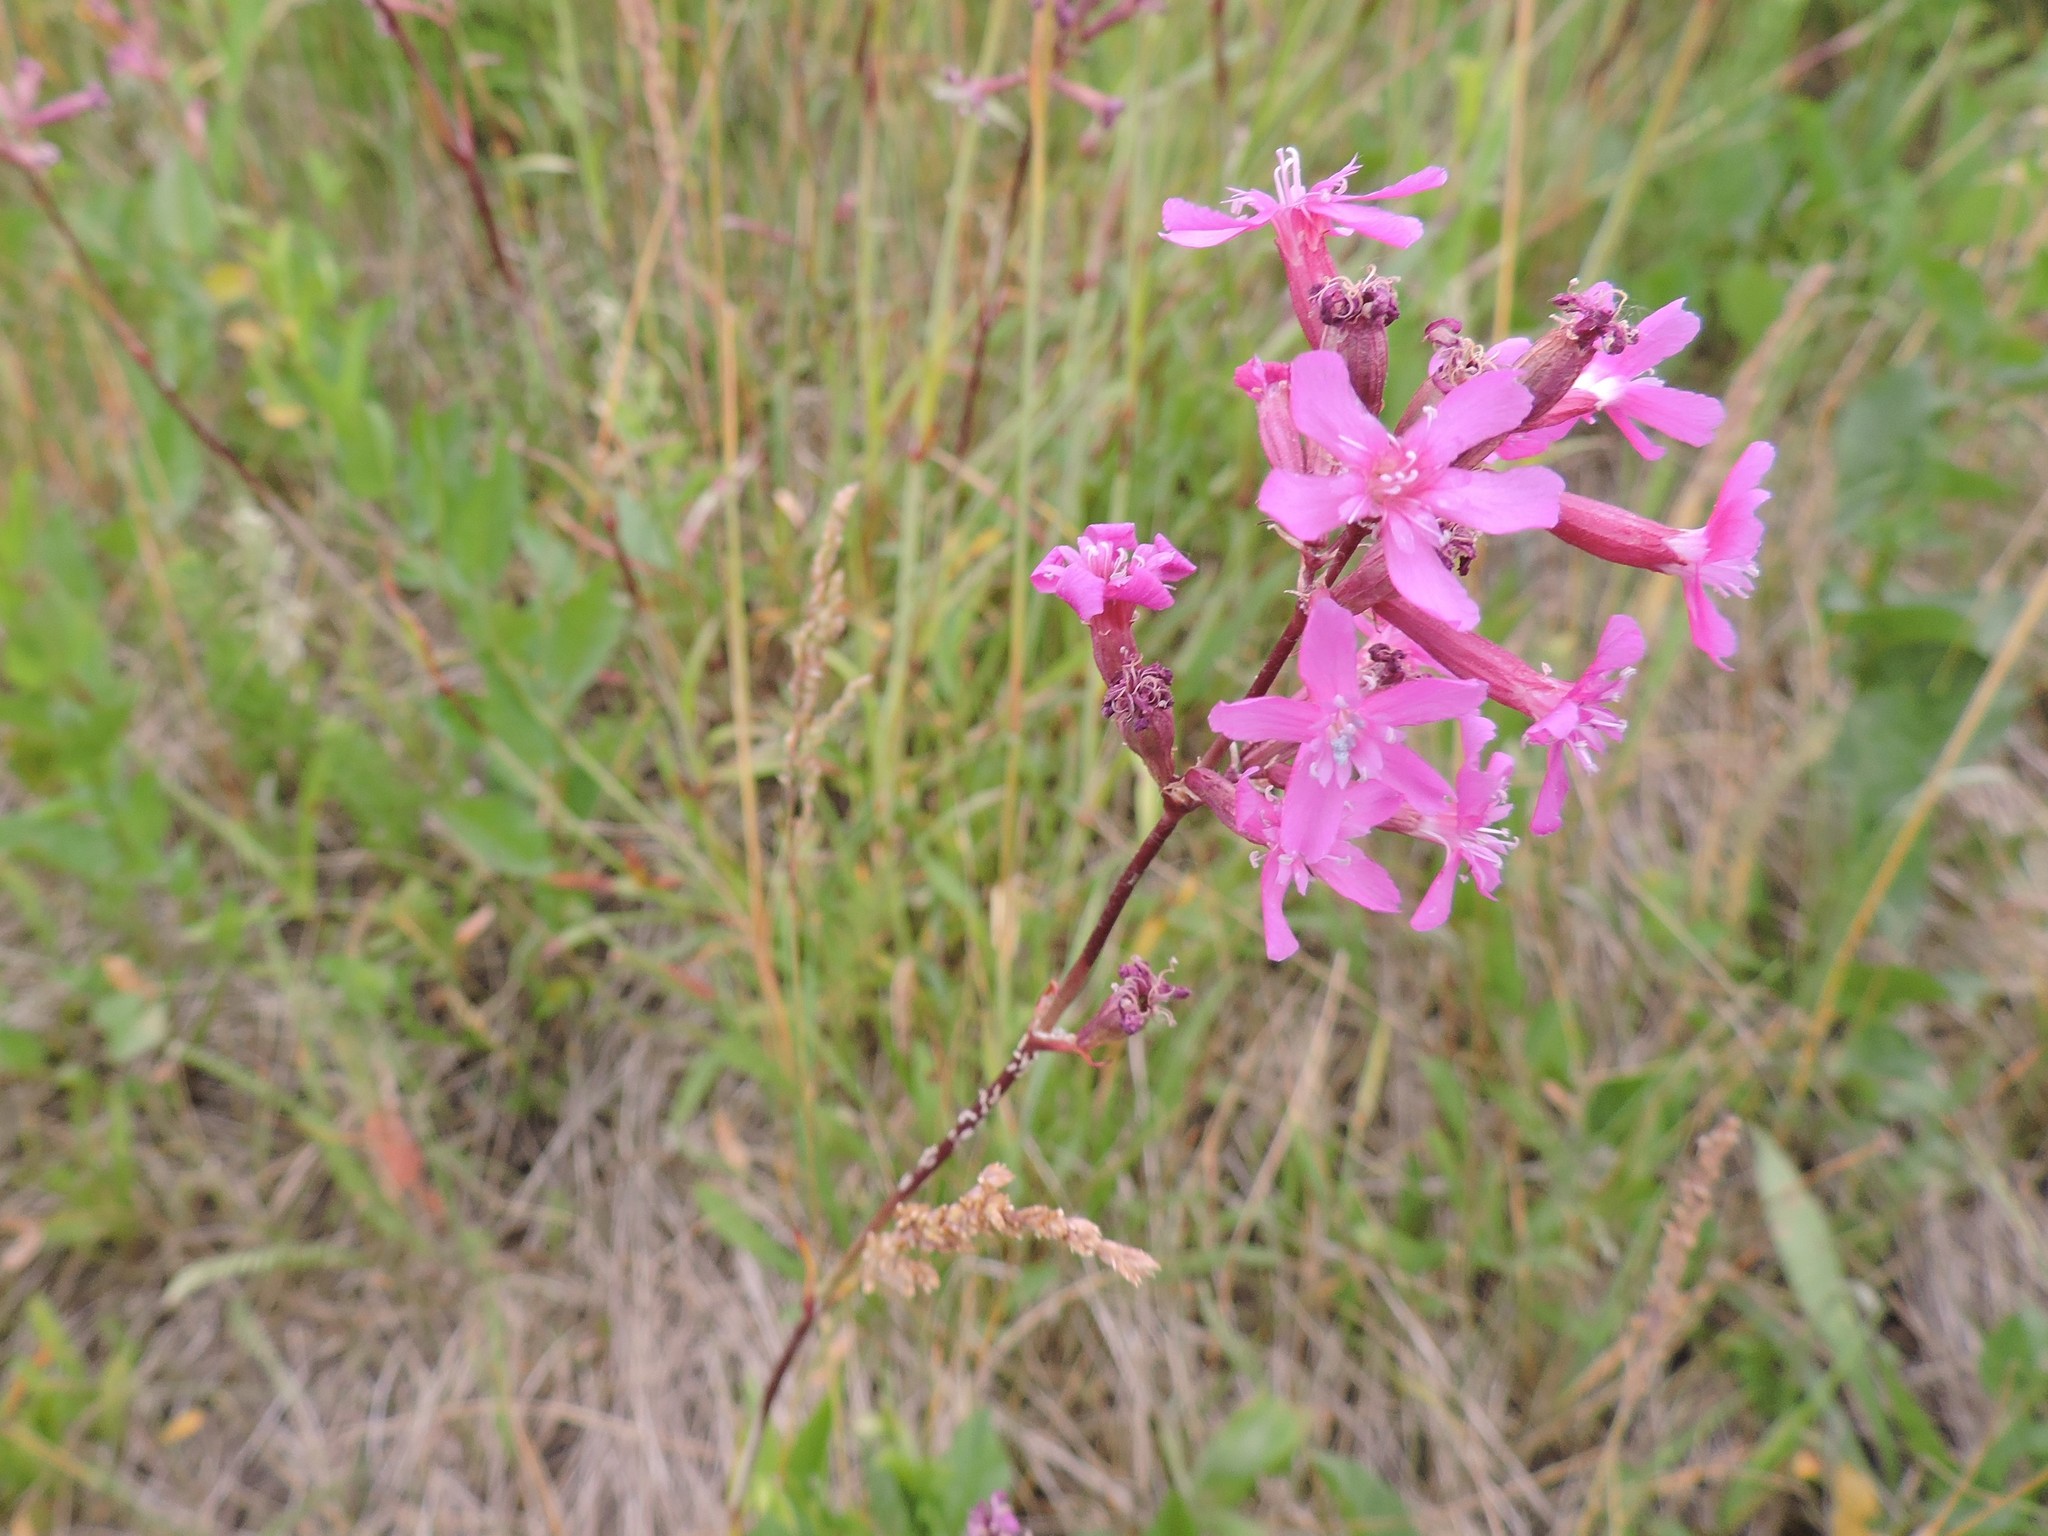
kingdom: Plantae
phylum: Tracheophyta
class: Magnoliopsida
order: Caryophyllales
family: Caryophyllaceae
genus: Viscaria
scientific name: Viscaria vulgaris
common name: Clammy campion
